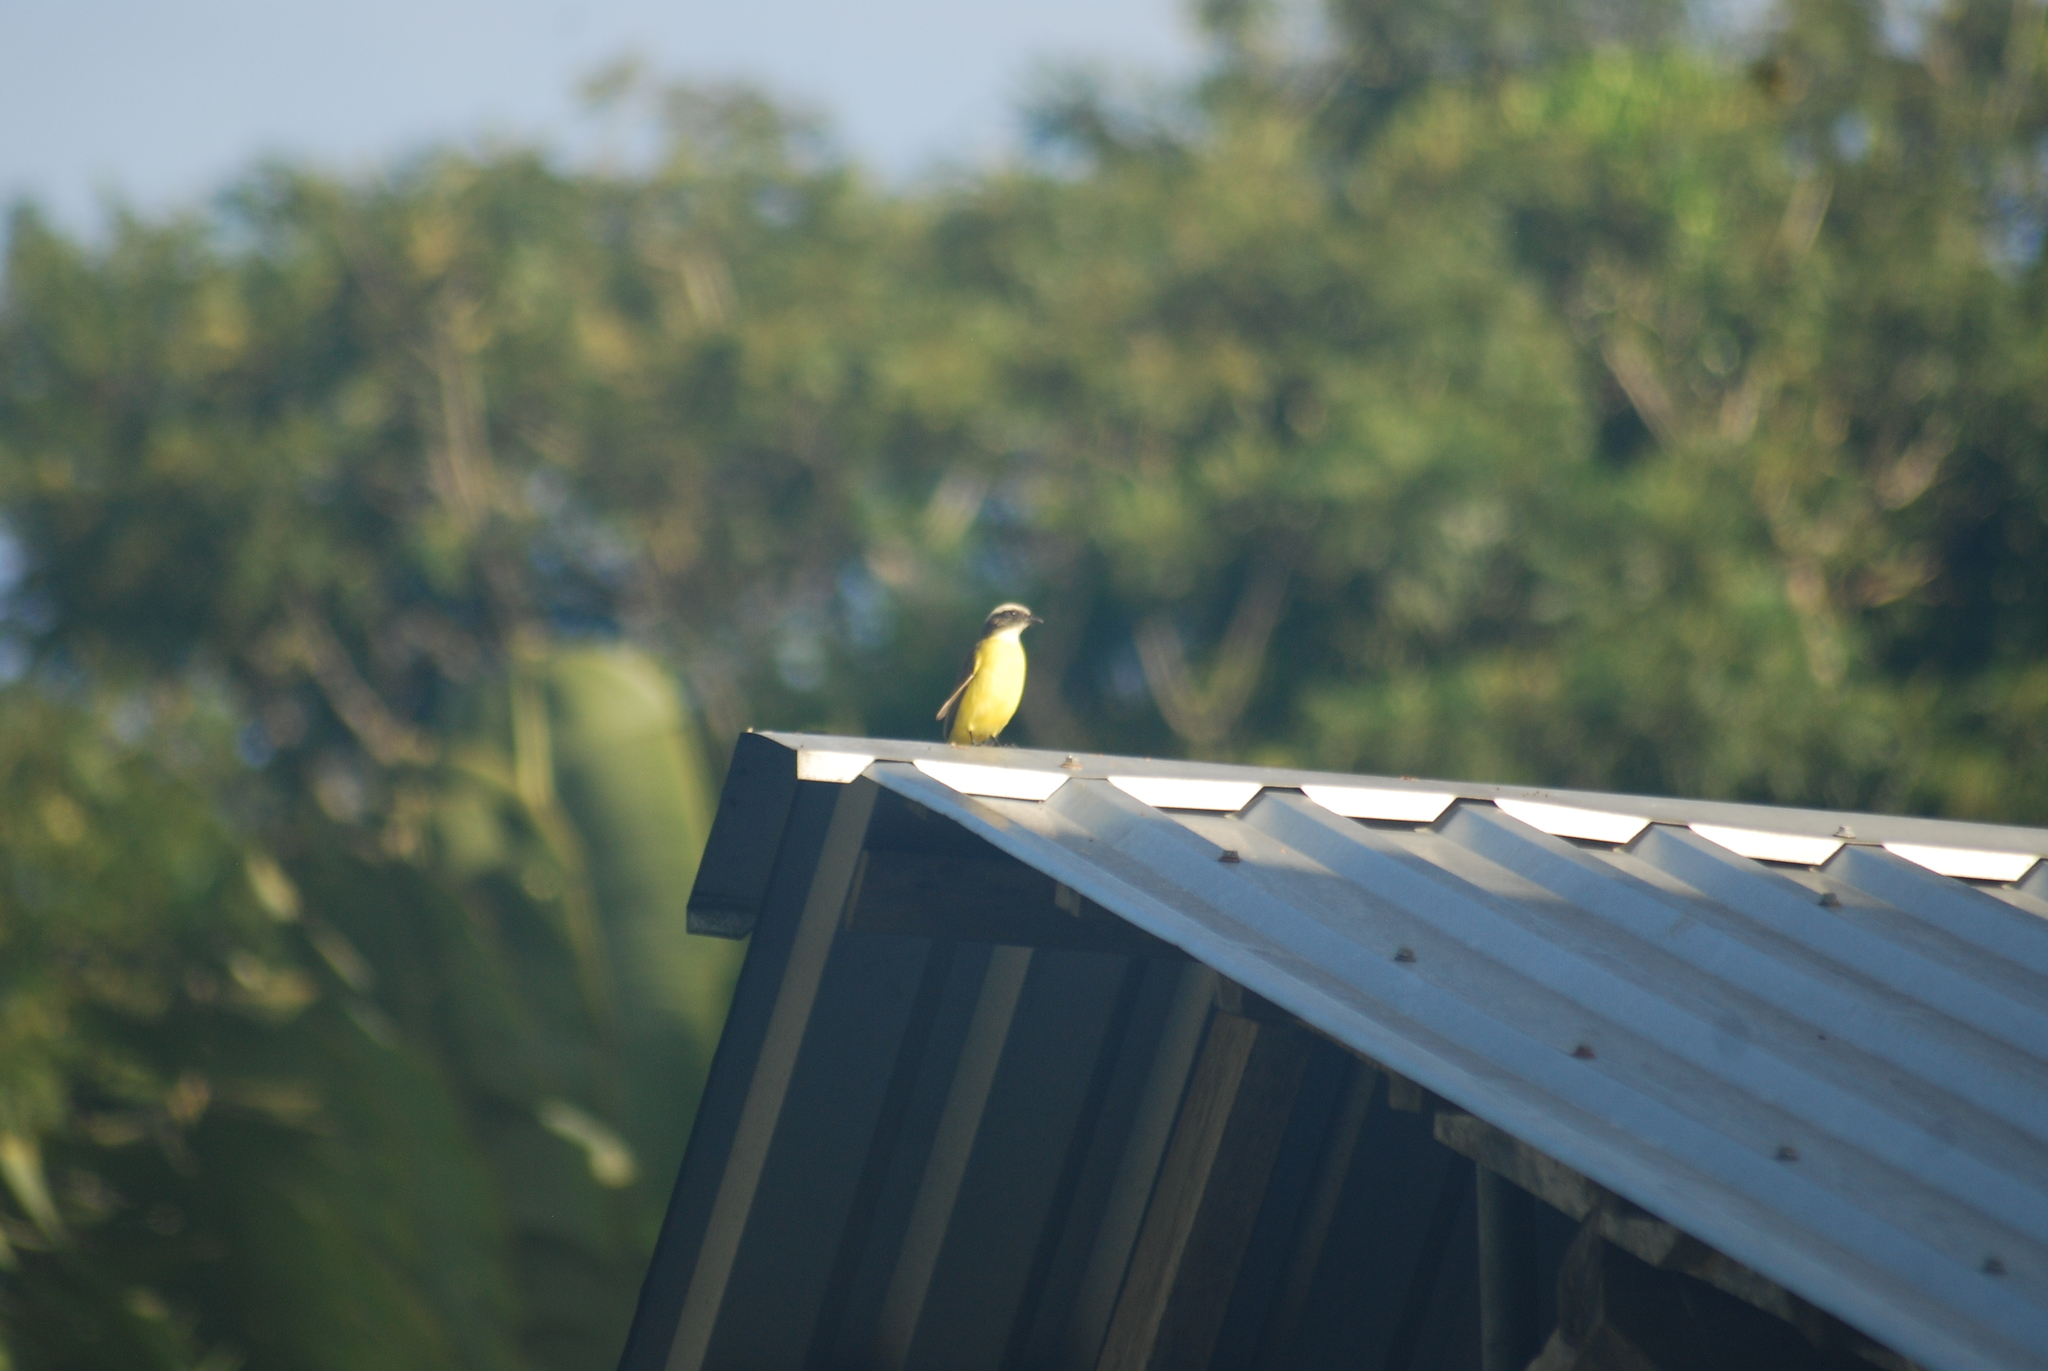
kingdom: Animalia
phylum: Chordata
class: Aves
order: Passeriformes
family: Tyrannidae
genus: Myiozetetes
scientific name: Myiozetetes similis
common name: Social flycatcher
